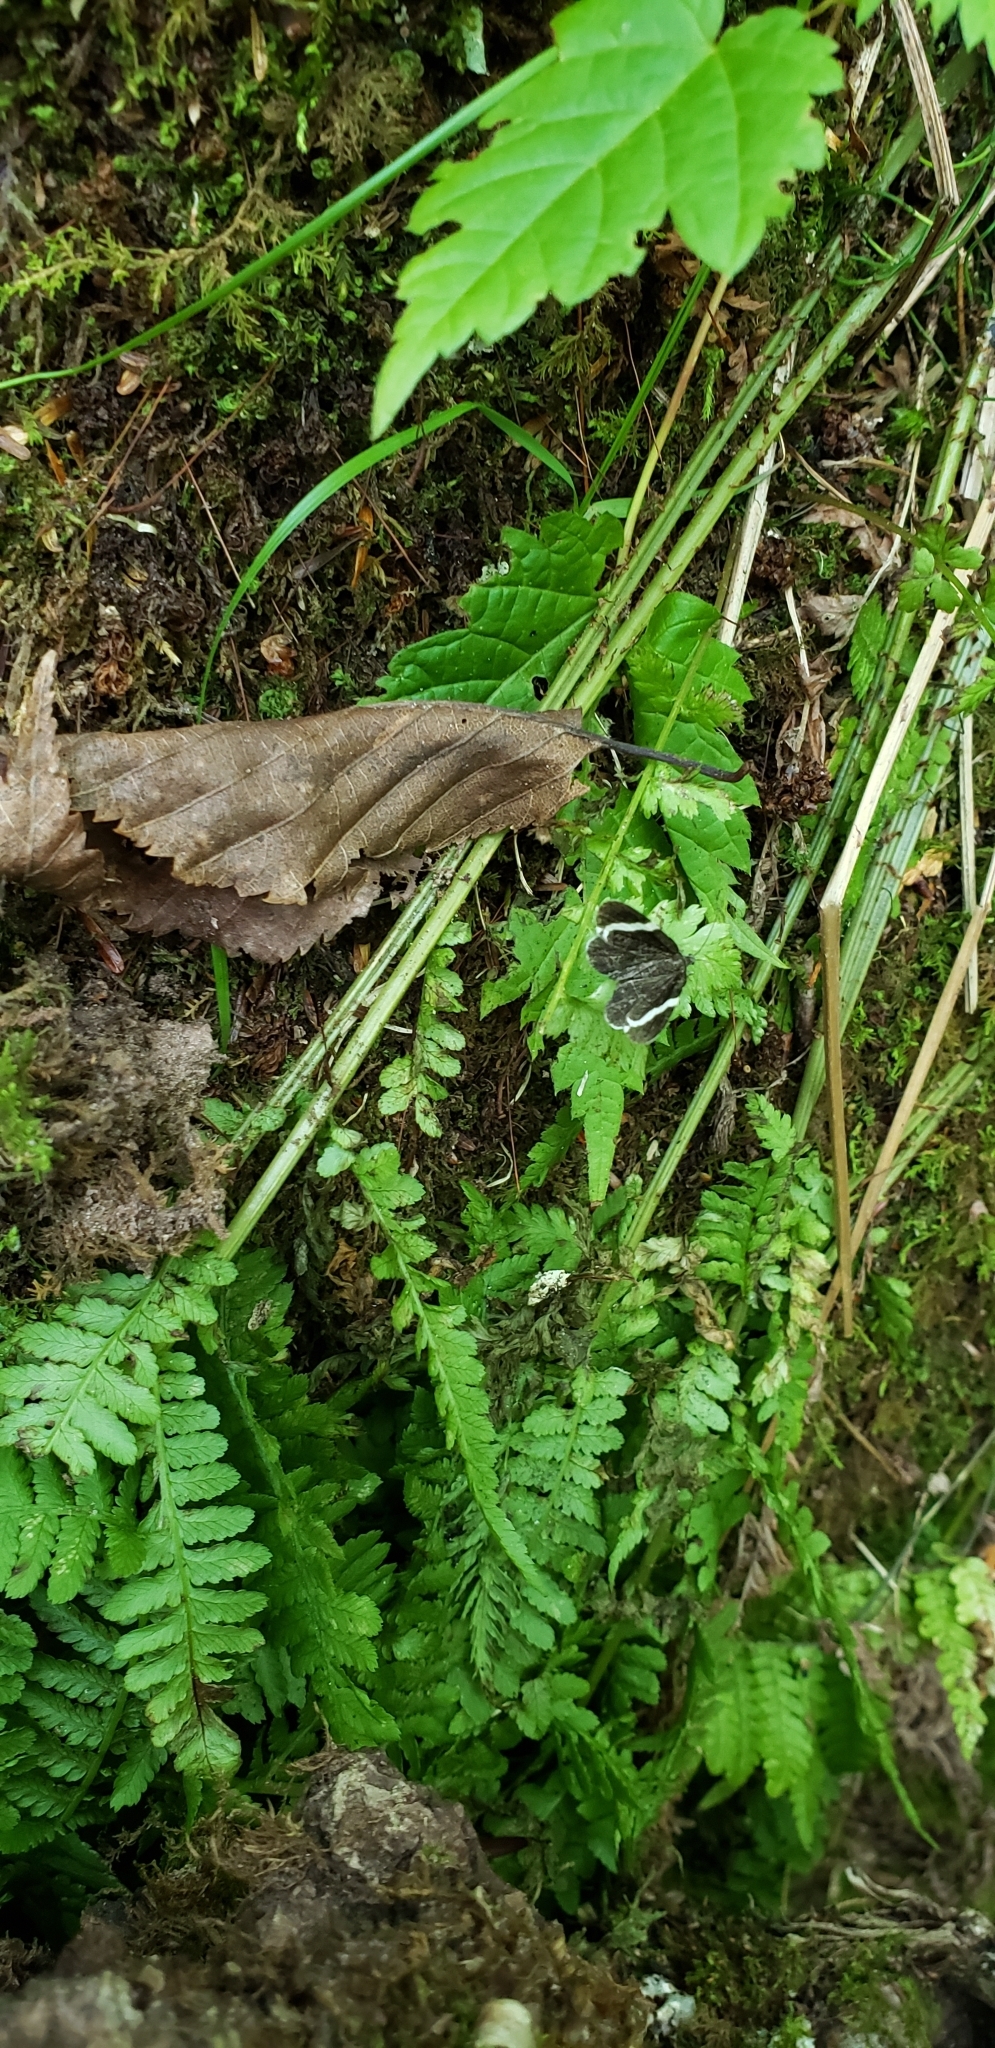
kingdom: Animalia
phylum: Arthropoda
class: Insecta
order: Lepidoptera
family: Geometridae
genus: Trichodezia
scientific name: Trichodezia albovittata
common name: White striped black
